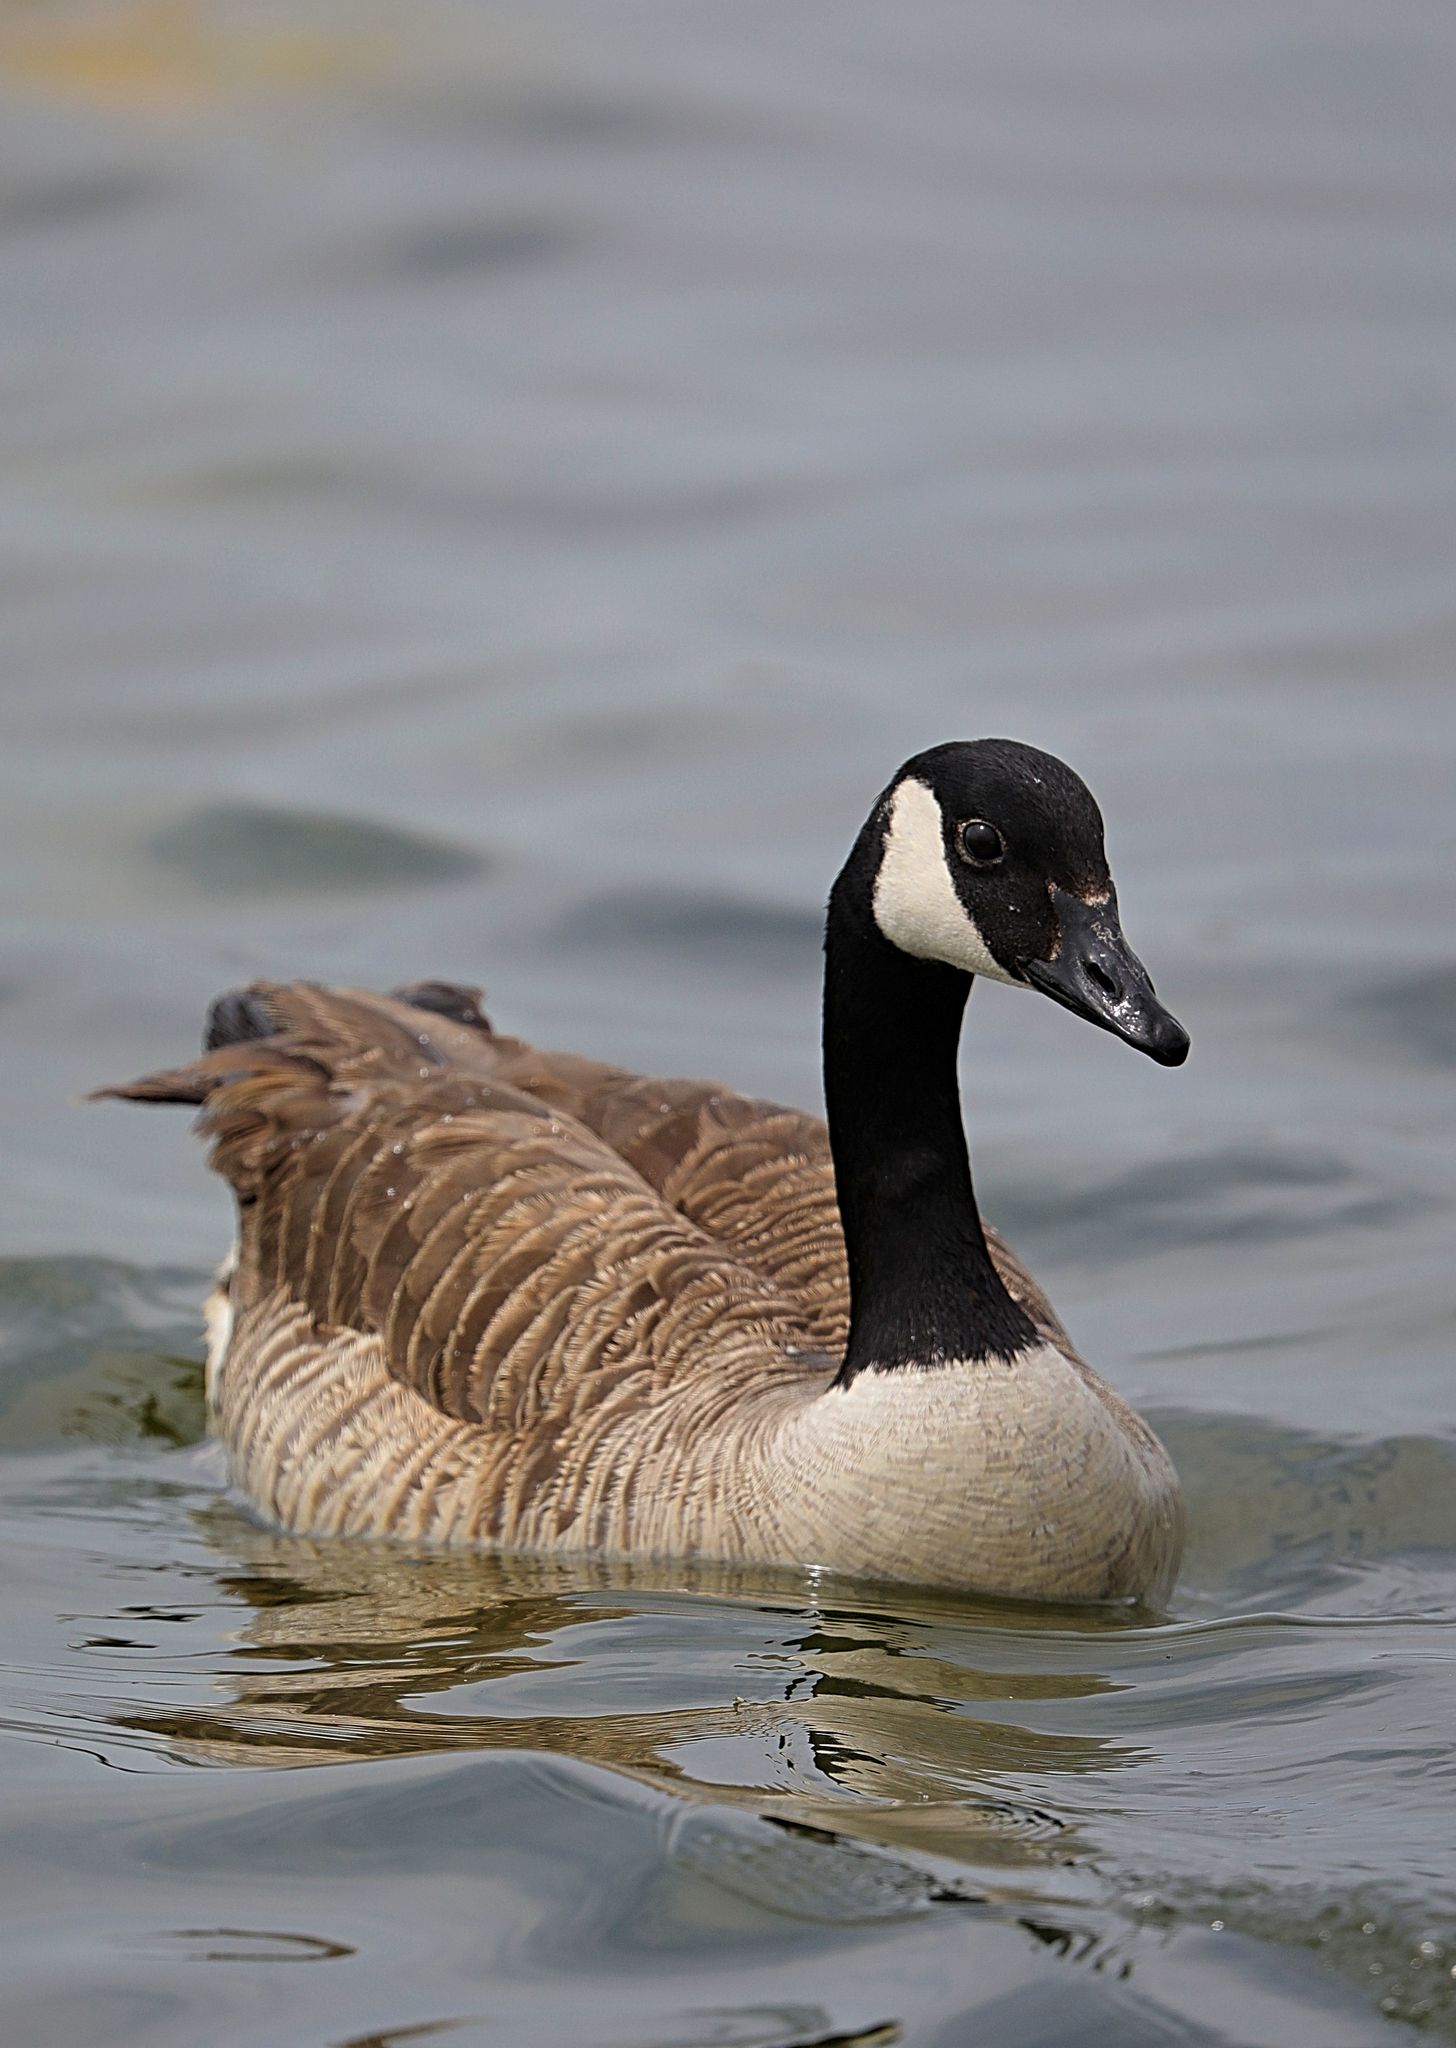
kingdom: Animalia
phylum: Chordata
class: Aves
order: Anseriformes
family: Anatidae
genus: Branta
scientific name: Branta canadensis
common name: Canada goose
